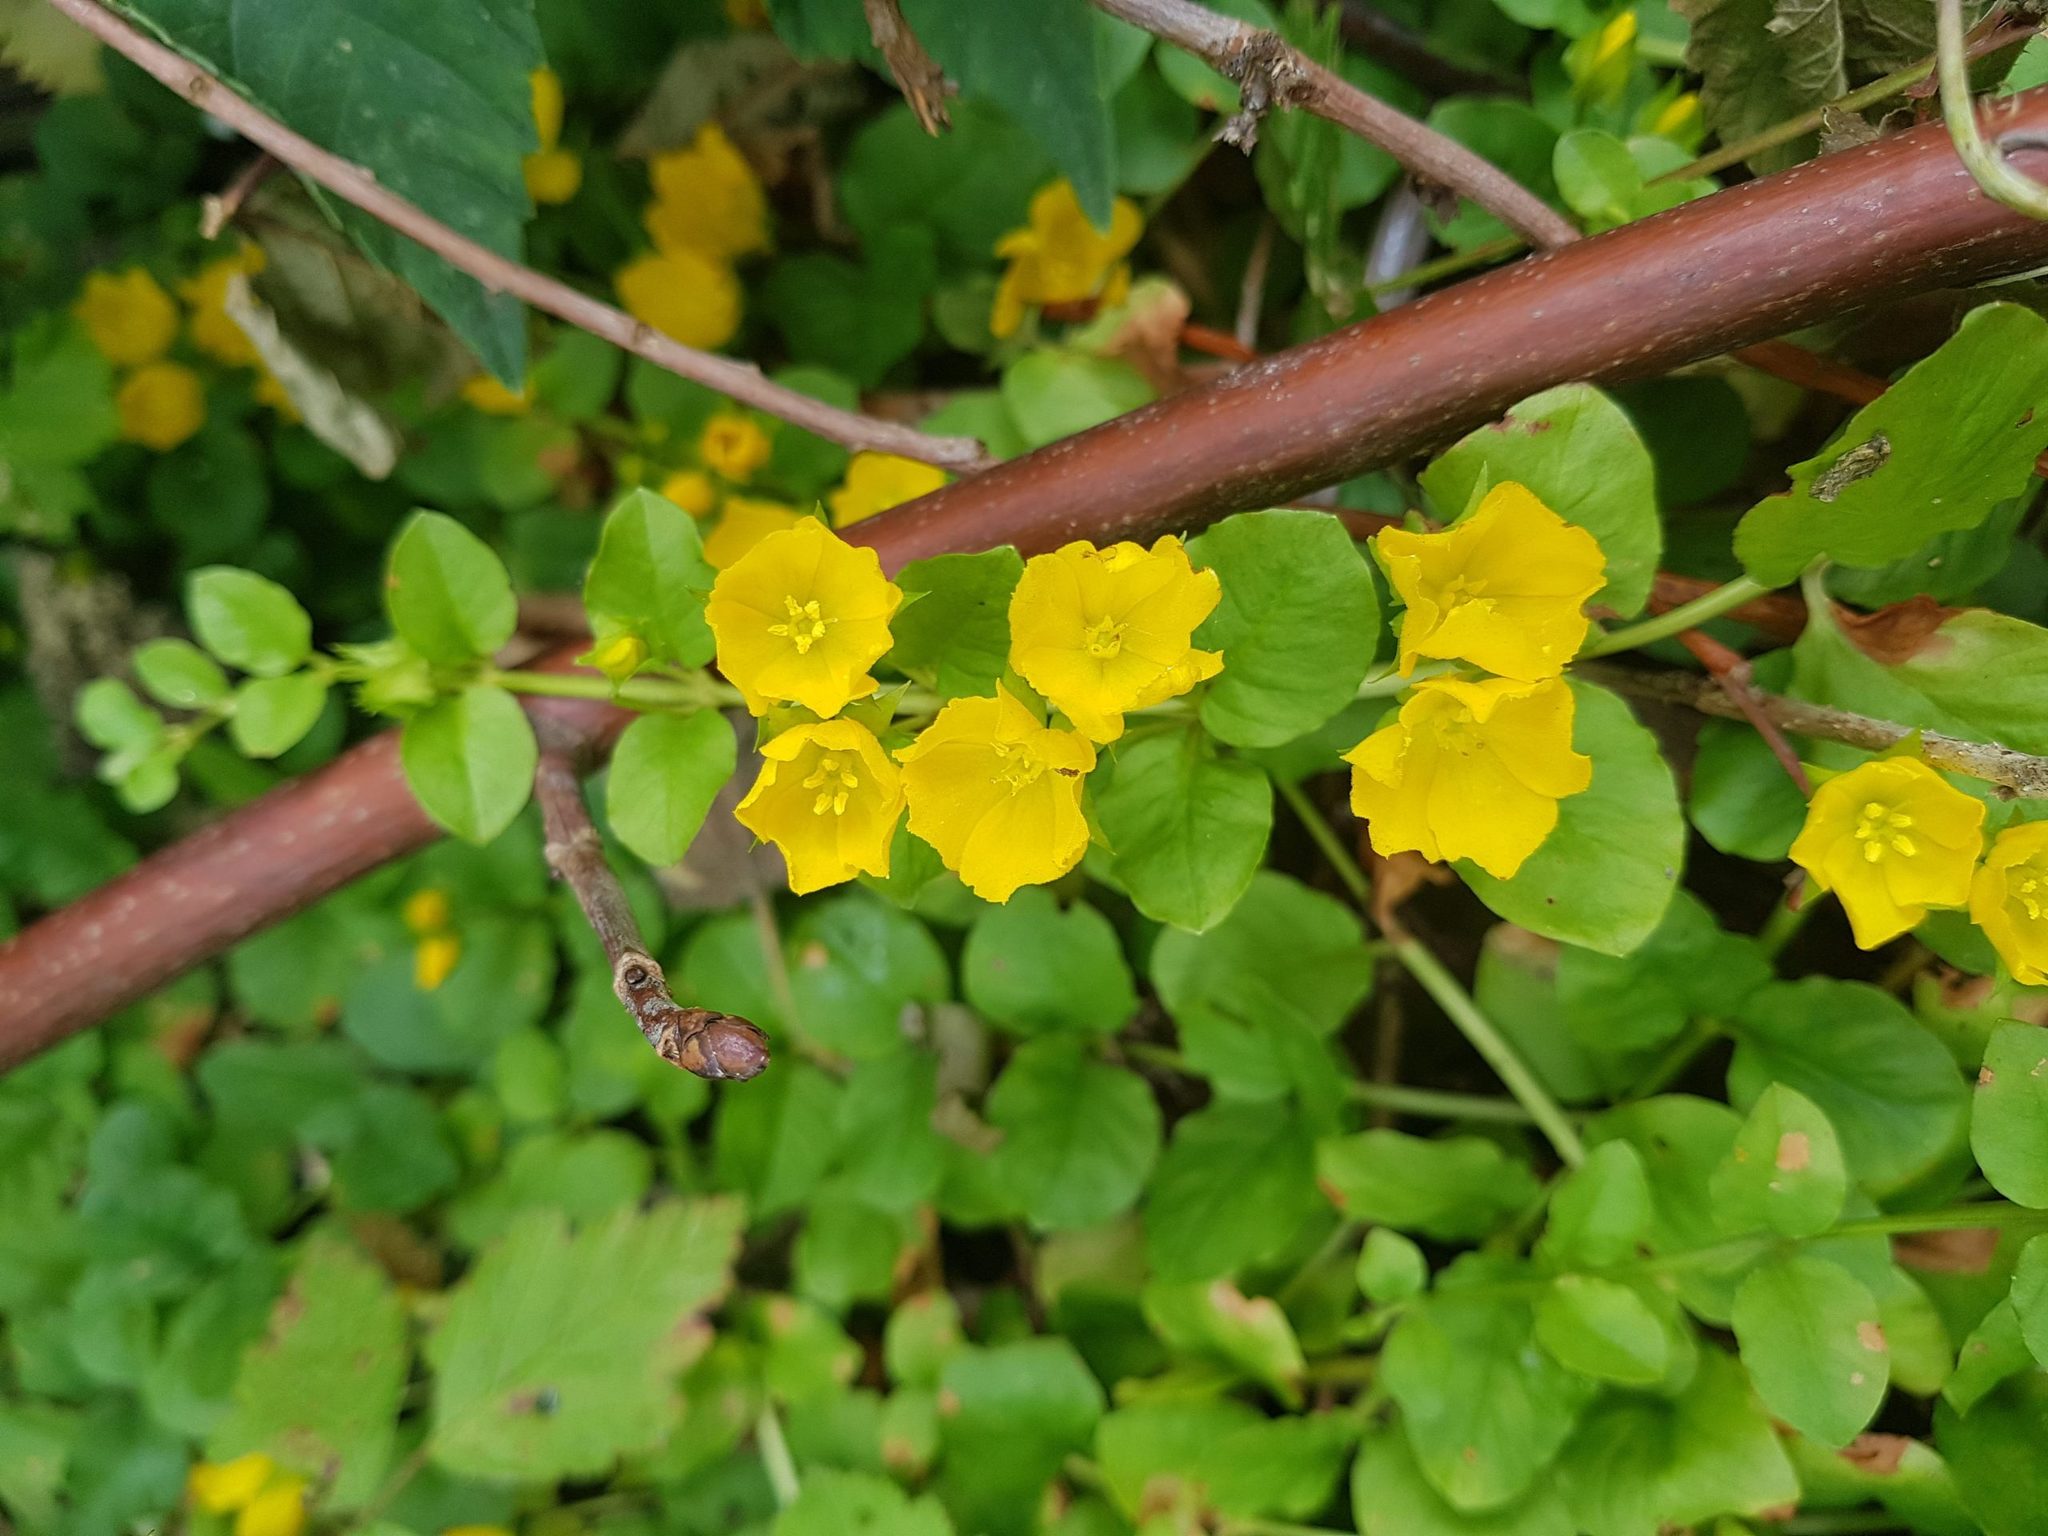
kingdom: Plantae
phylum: Tracheophyta
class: Magnoliopsida
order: Ericales
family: Primulaceae
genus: Lysimachia
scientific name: Lysimachia nummularia
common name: Moneywort
